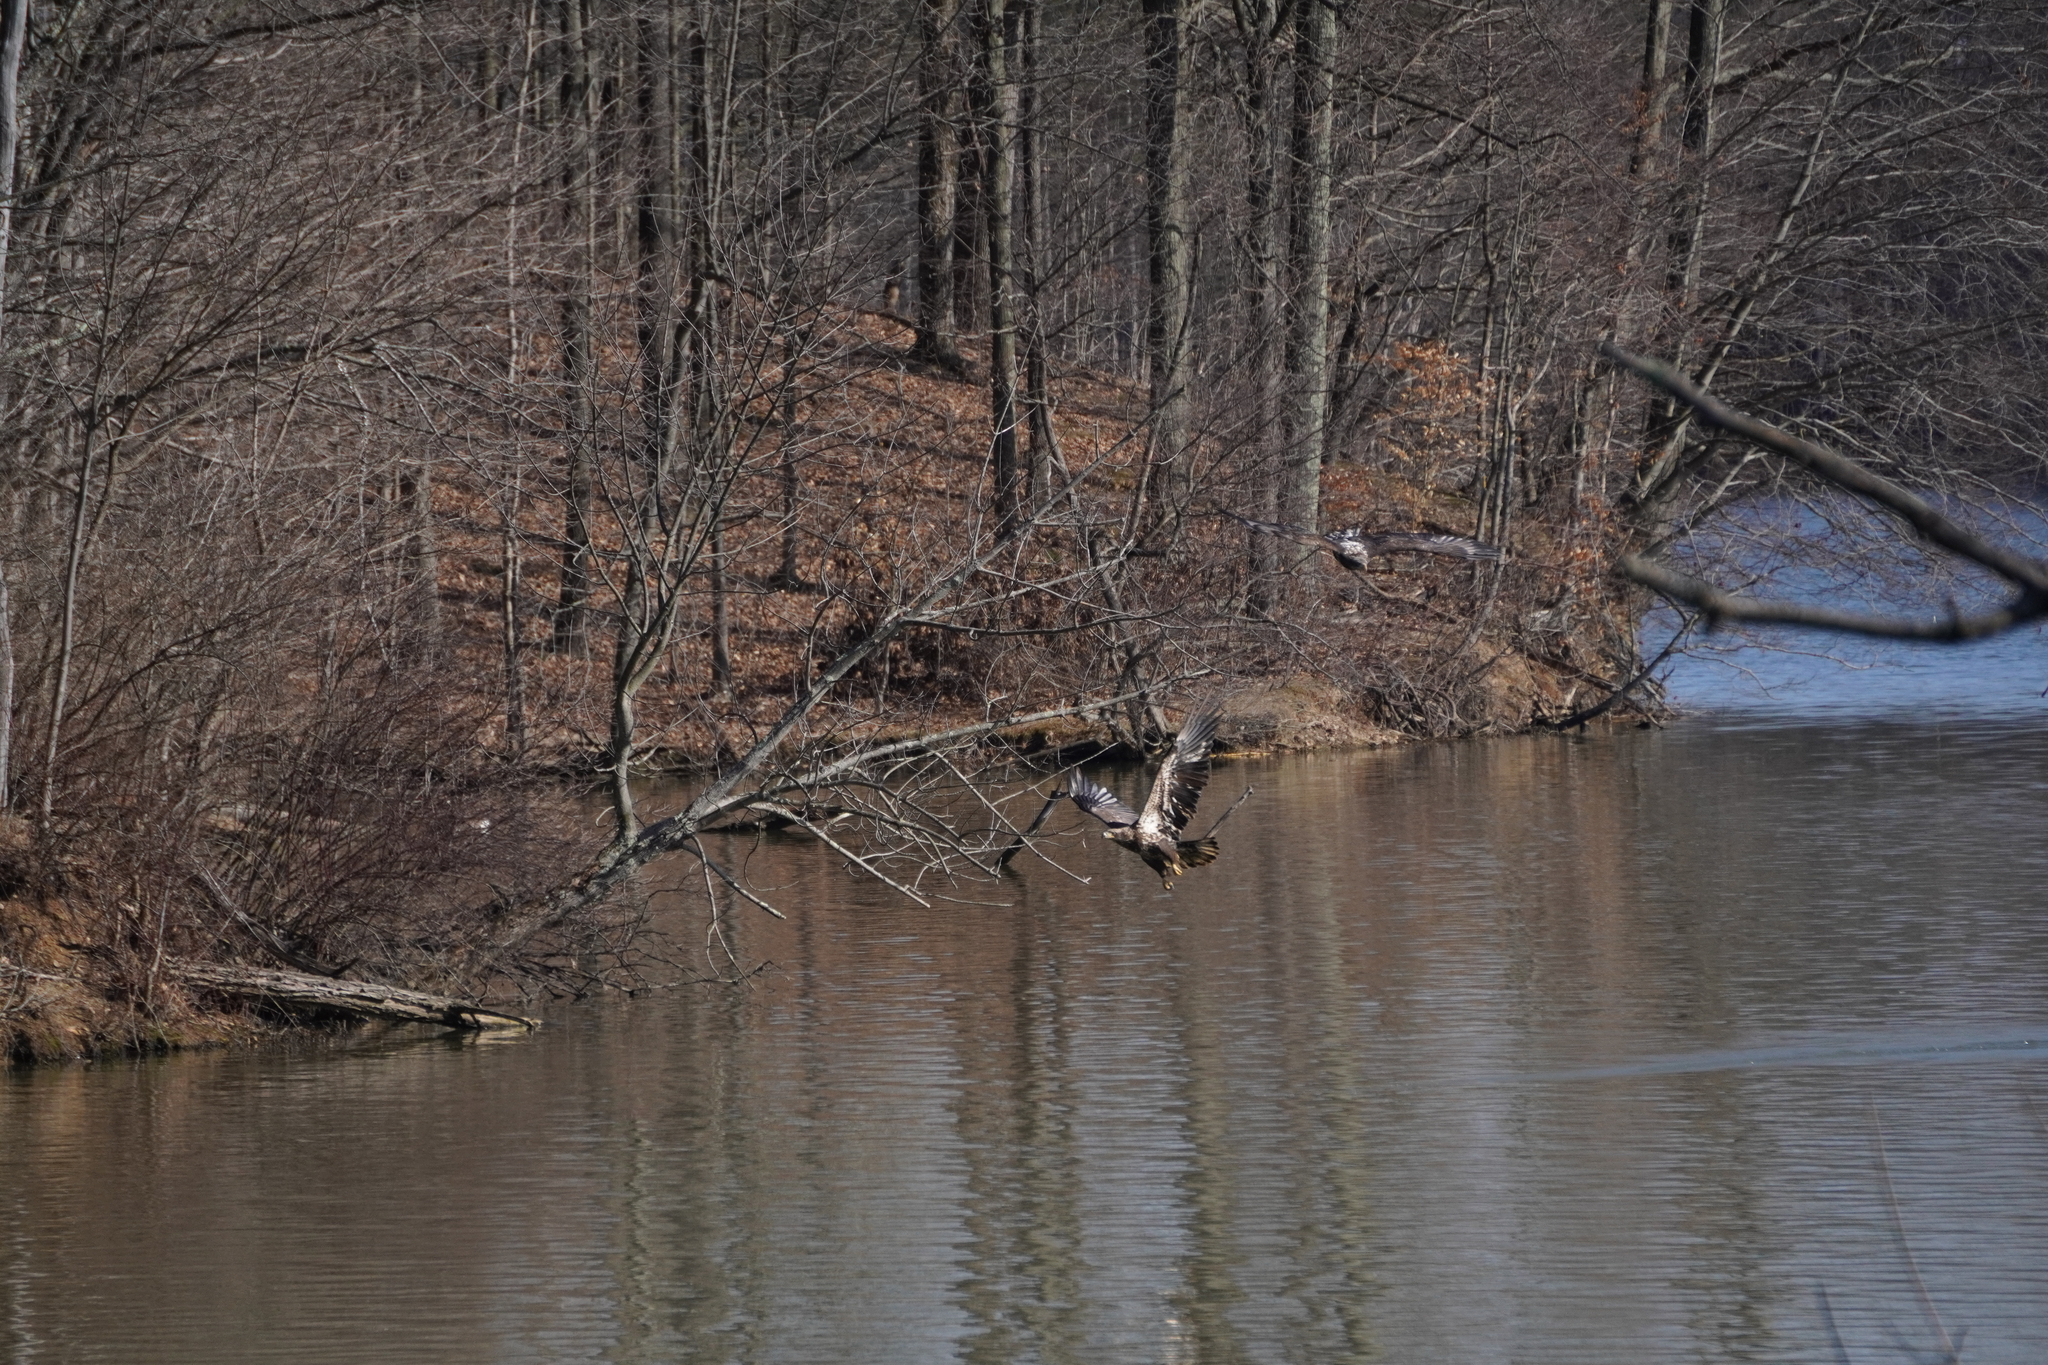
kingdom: Animalia
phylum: Chordata
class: Aves
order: Accipitriformes
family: Accipitridae
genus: Haliaeetus
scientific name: Haliaeetus leucocephalus
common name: Bald eagle
